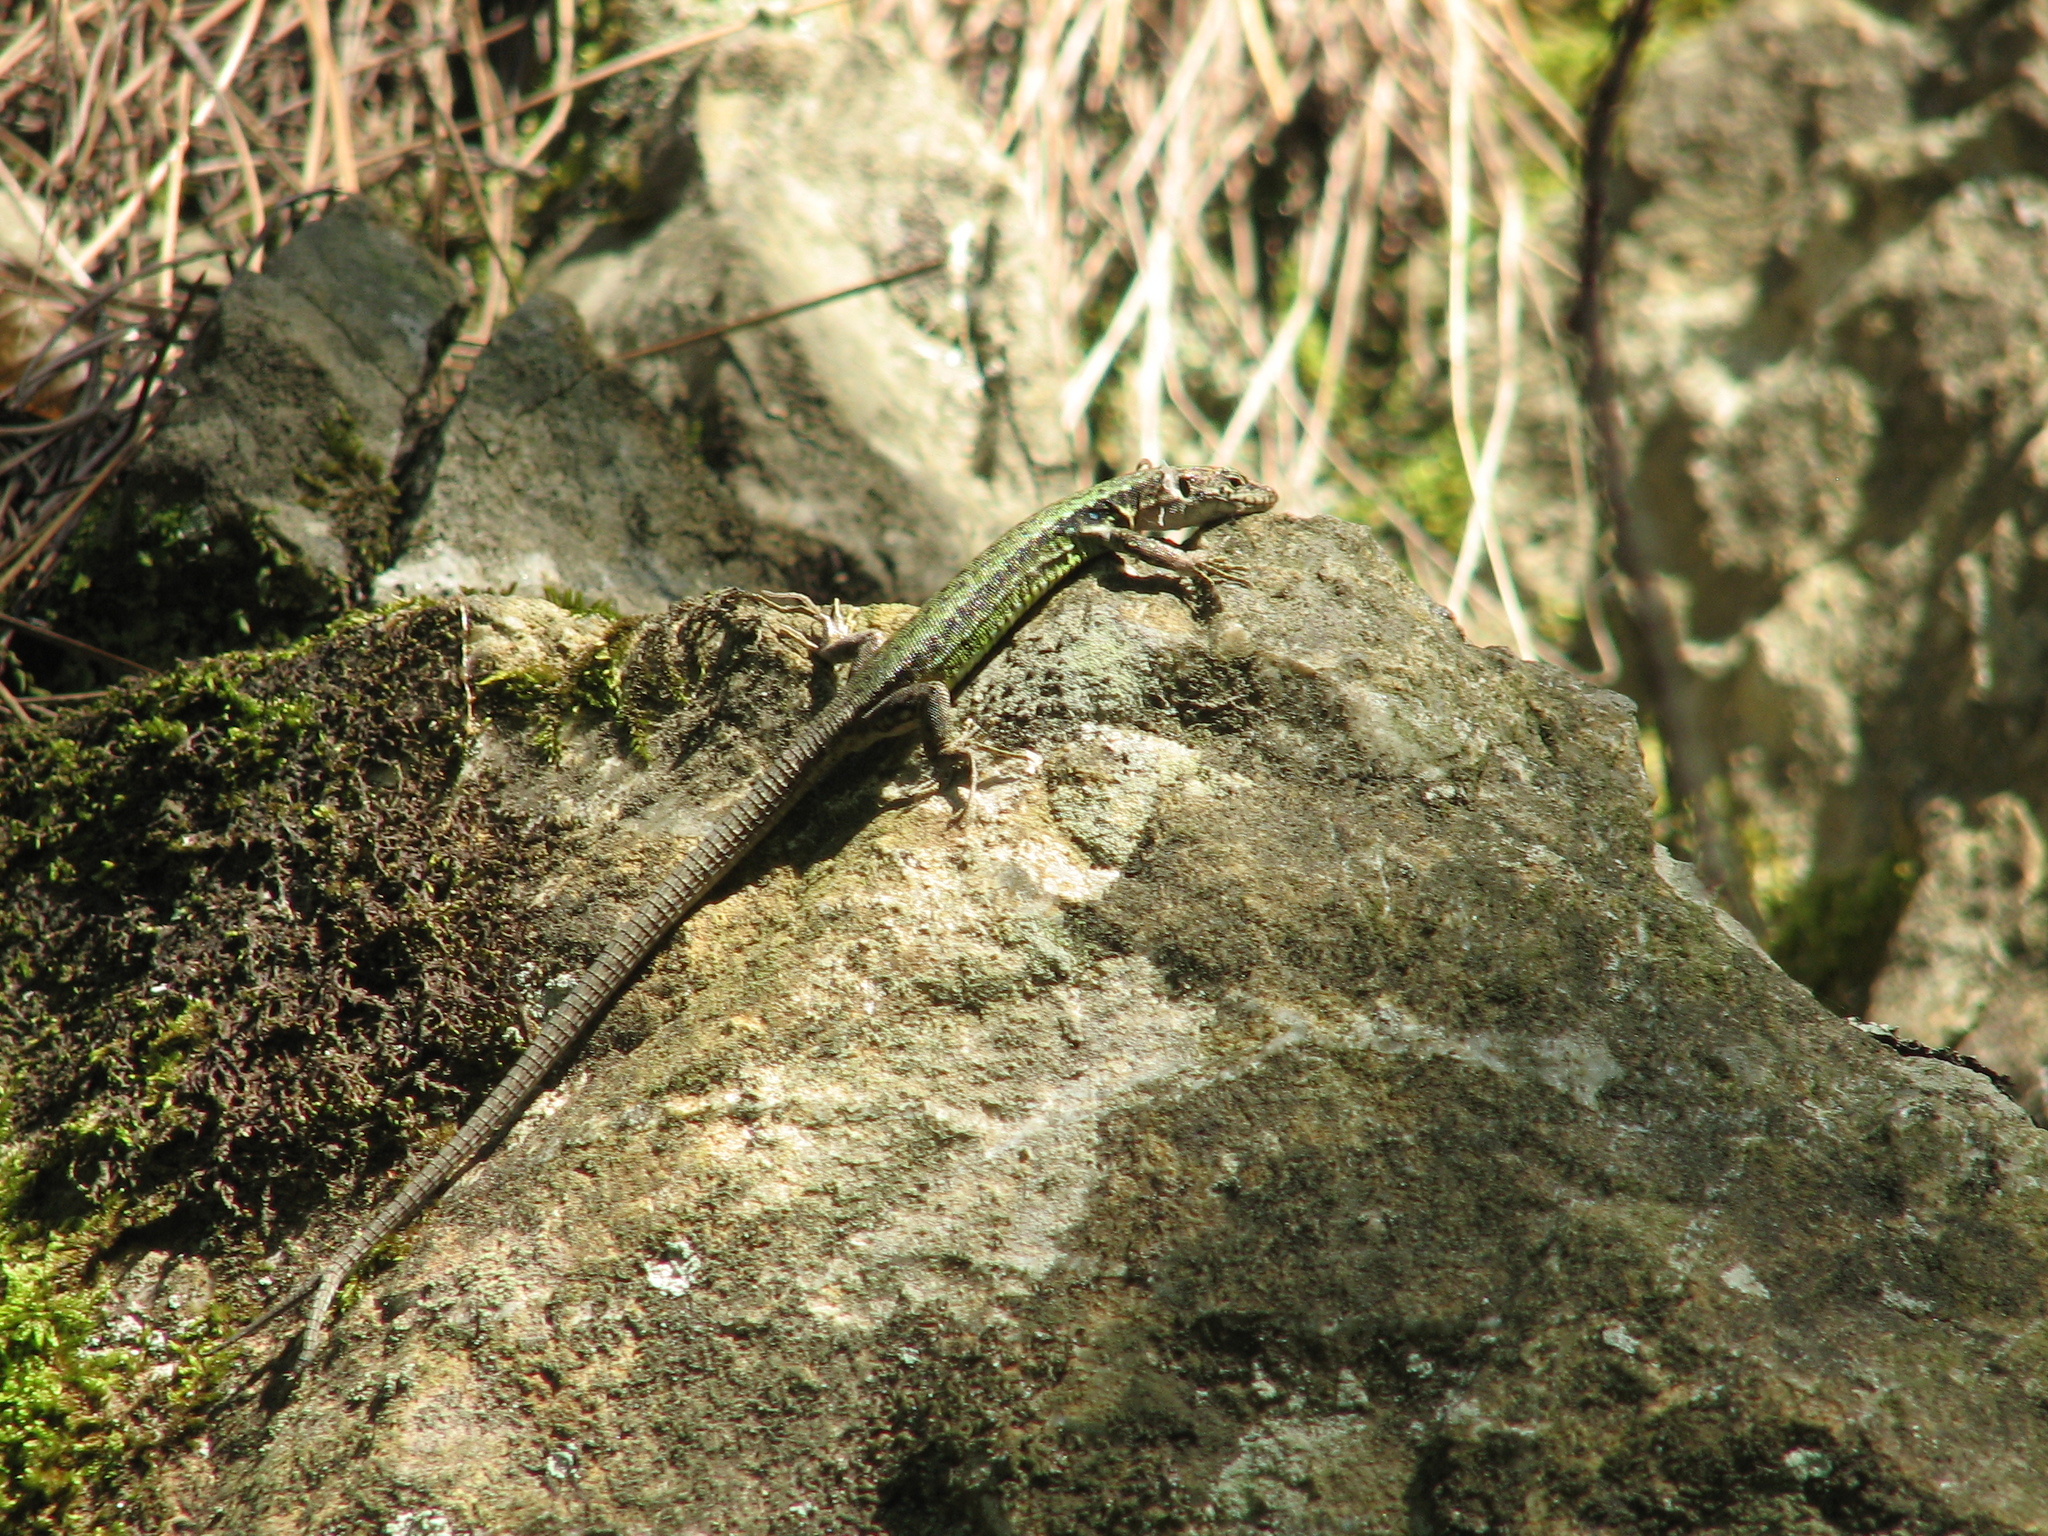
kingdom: Animalia
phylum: Chordata
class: Squamata
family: Lacertidae
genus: Darevskia
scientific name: Darevskia lindholmi
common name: Crimean rock lizard
